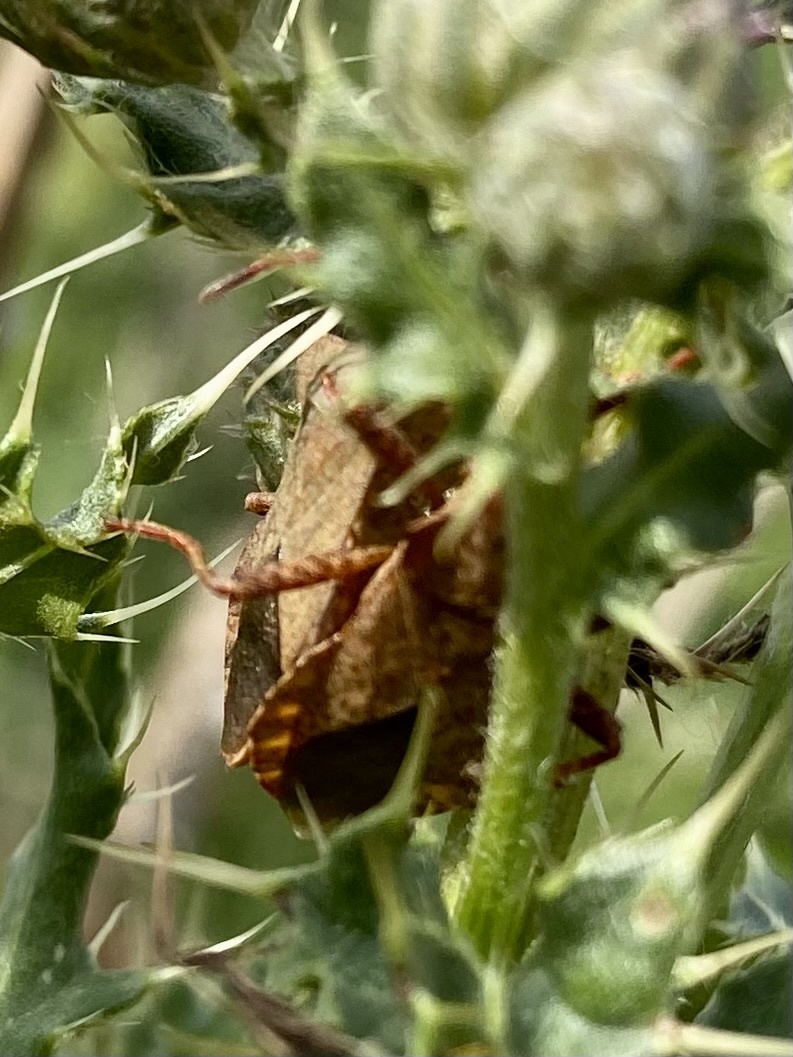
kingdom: Animalia
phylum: Arthropoda
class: Insecta
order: Hemiptera
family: Coreidae
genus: Coreus
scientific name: Coreus marginatus
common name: Dock bug
